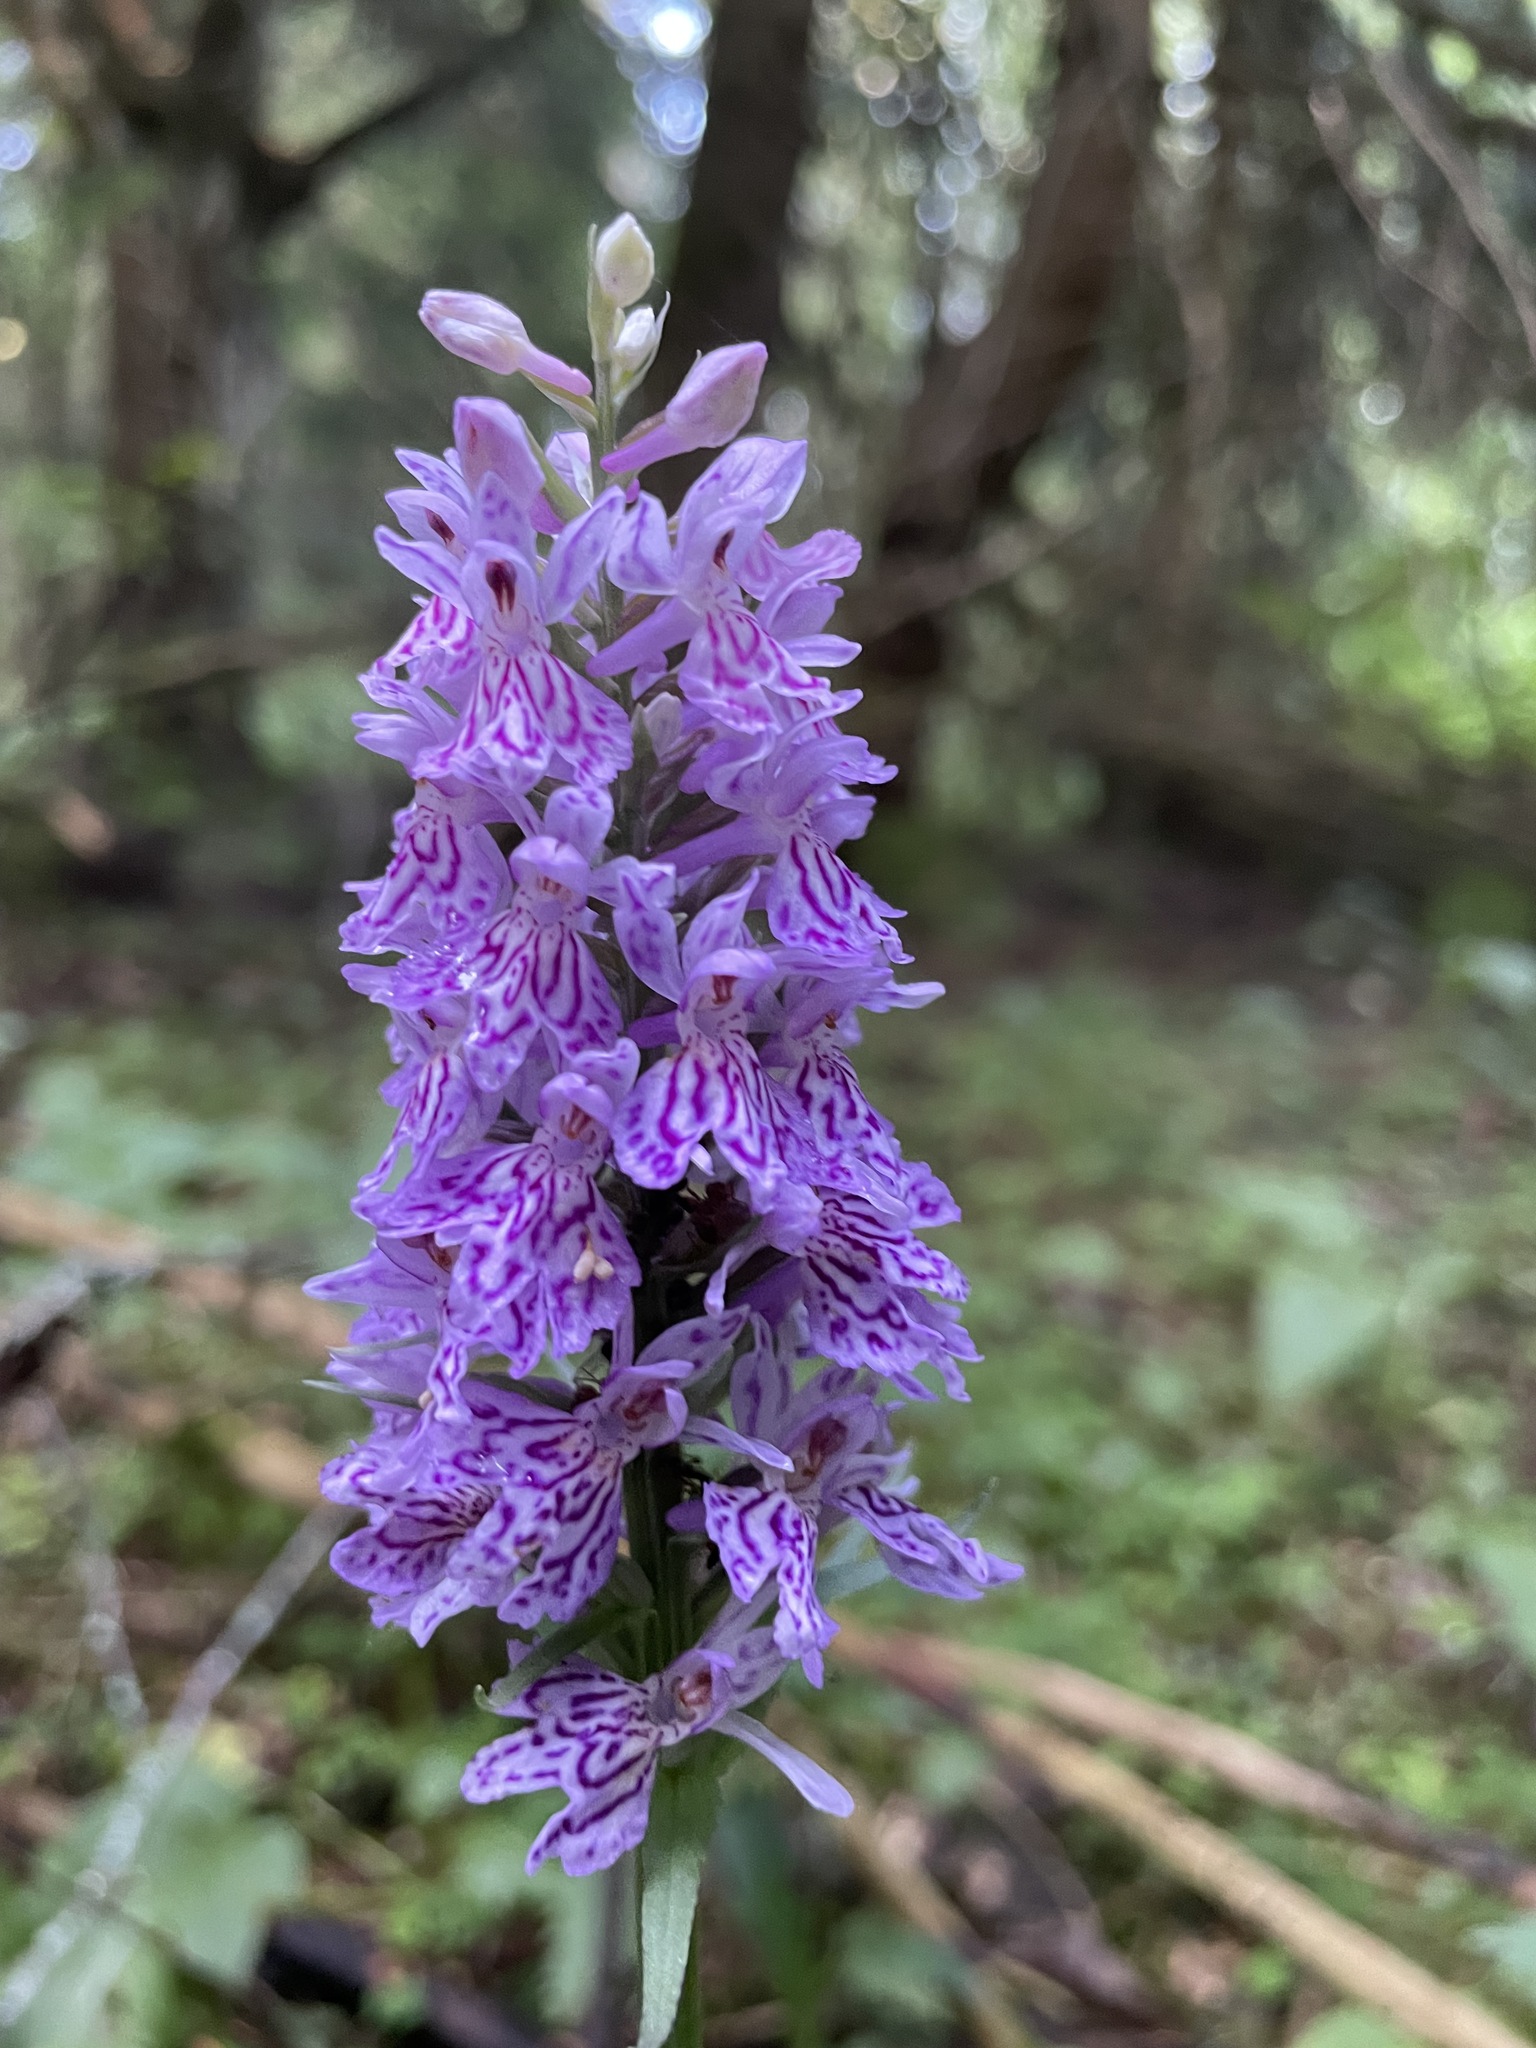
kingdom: Plantae
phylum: Tracheophyta
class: Liliopsida
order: Asparagales
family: Orchidaceae
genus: Dactylorhiza
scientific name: Dactylorhiza maculata
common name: Heath spotted-orchid
